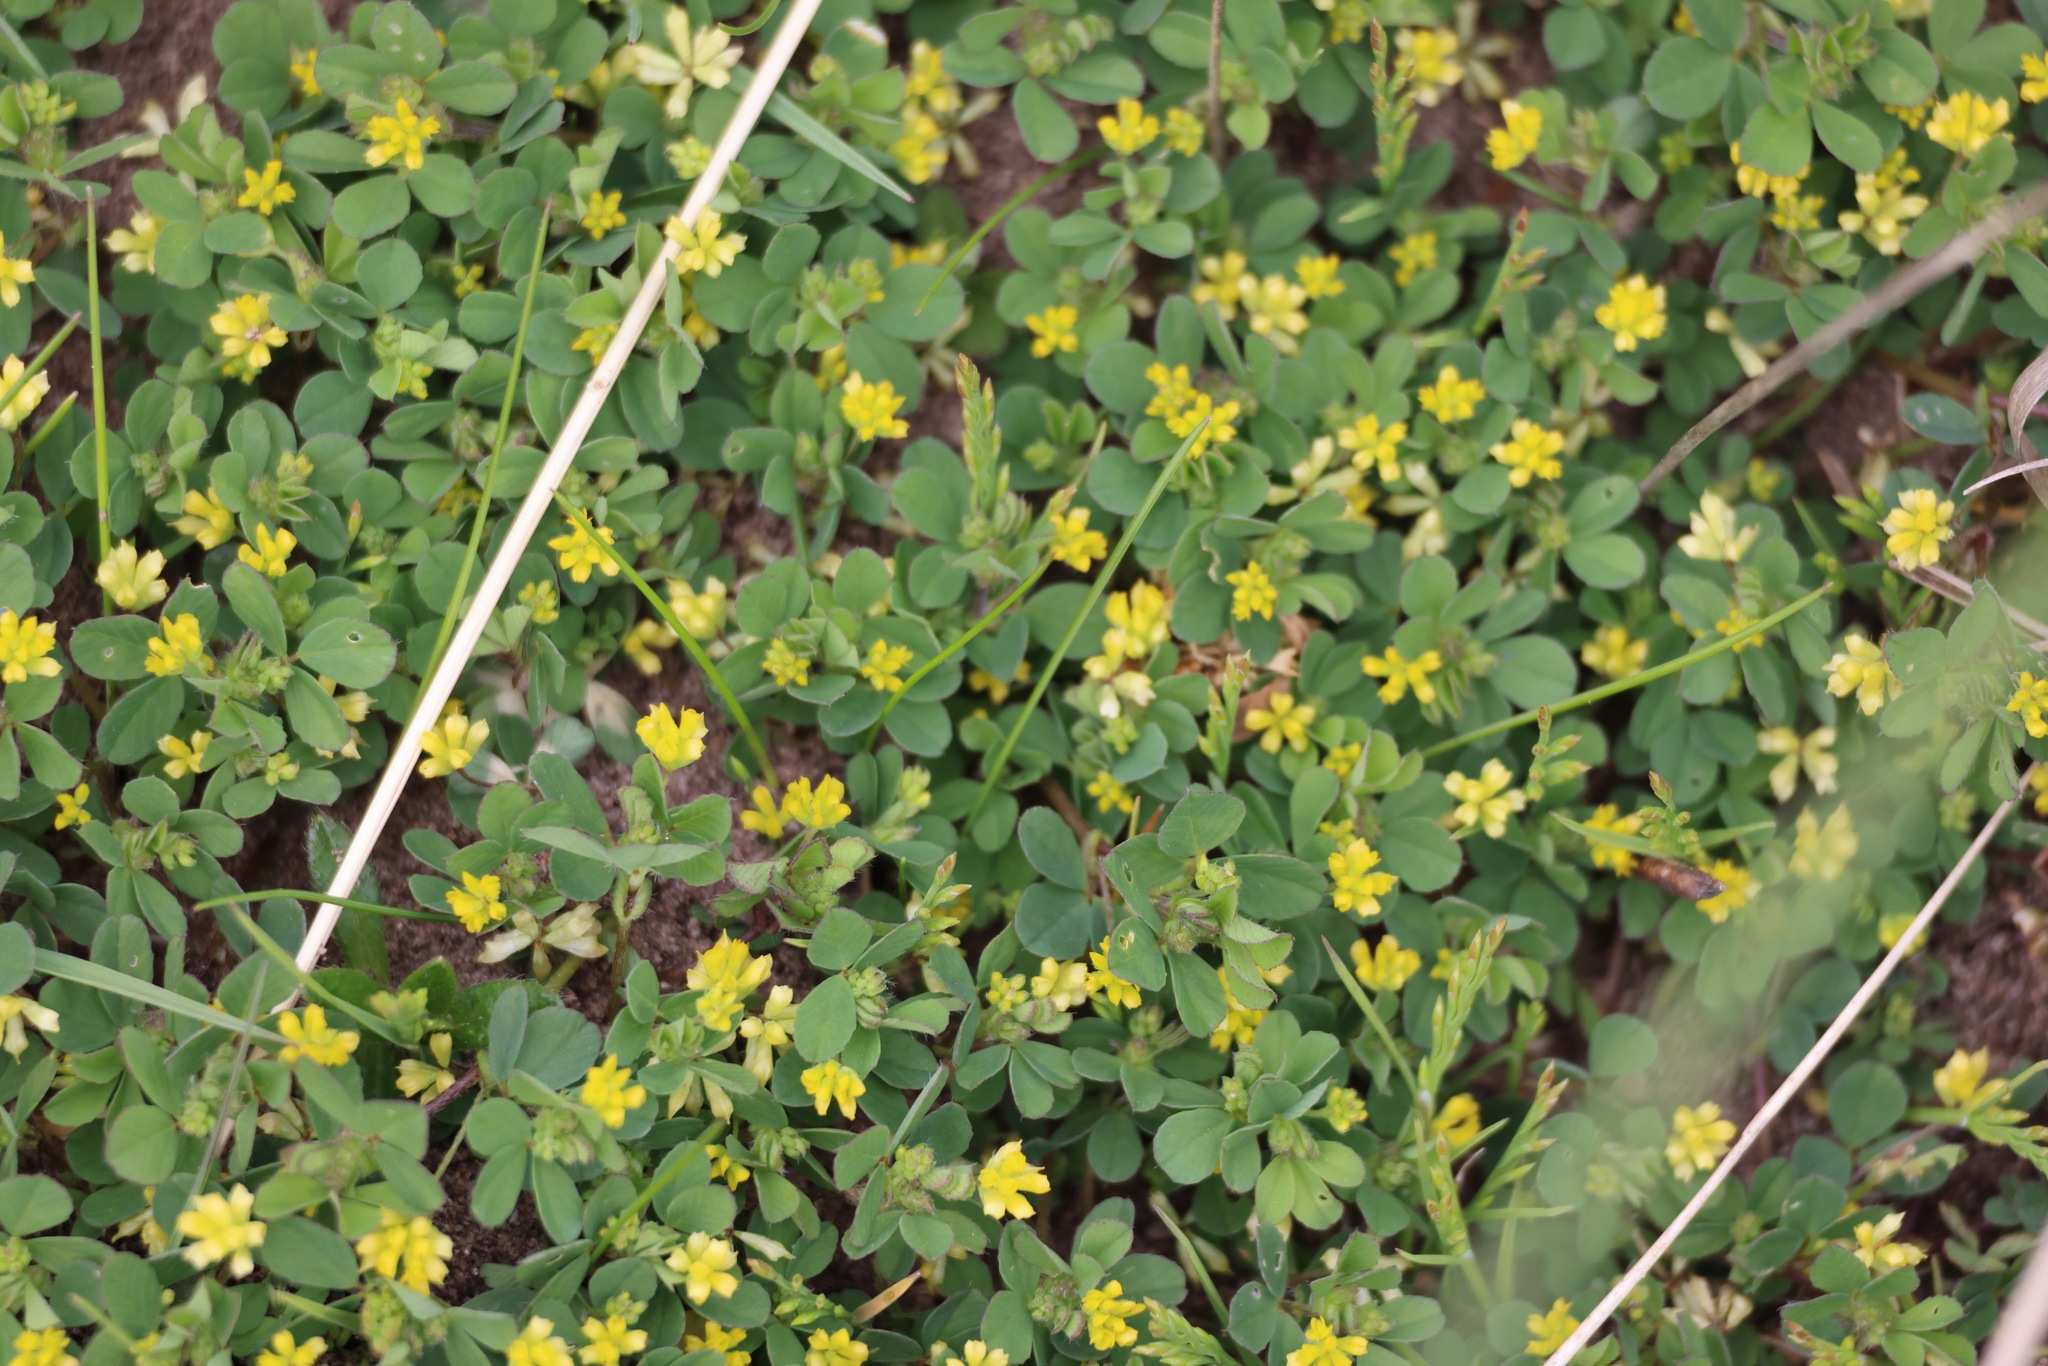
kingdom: Plantae
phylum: Tracheophyta
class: Magnoliopsida
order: Fabales
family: Fabaceae
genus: Trifolium
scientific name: Trifolium dubium
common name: Suckling clover
